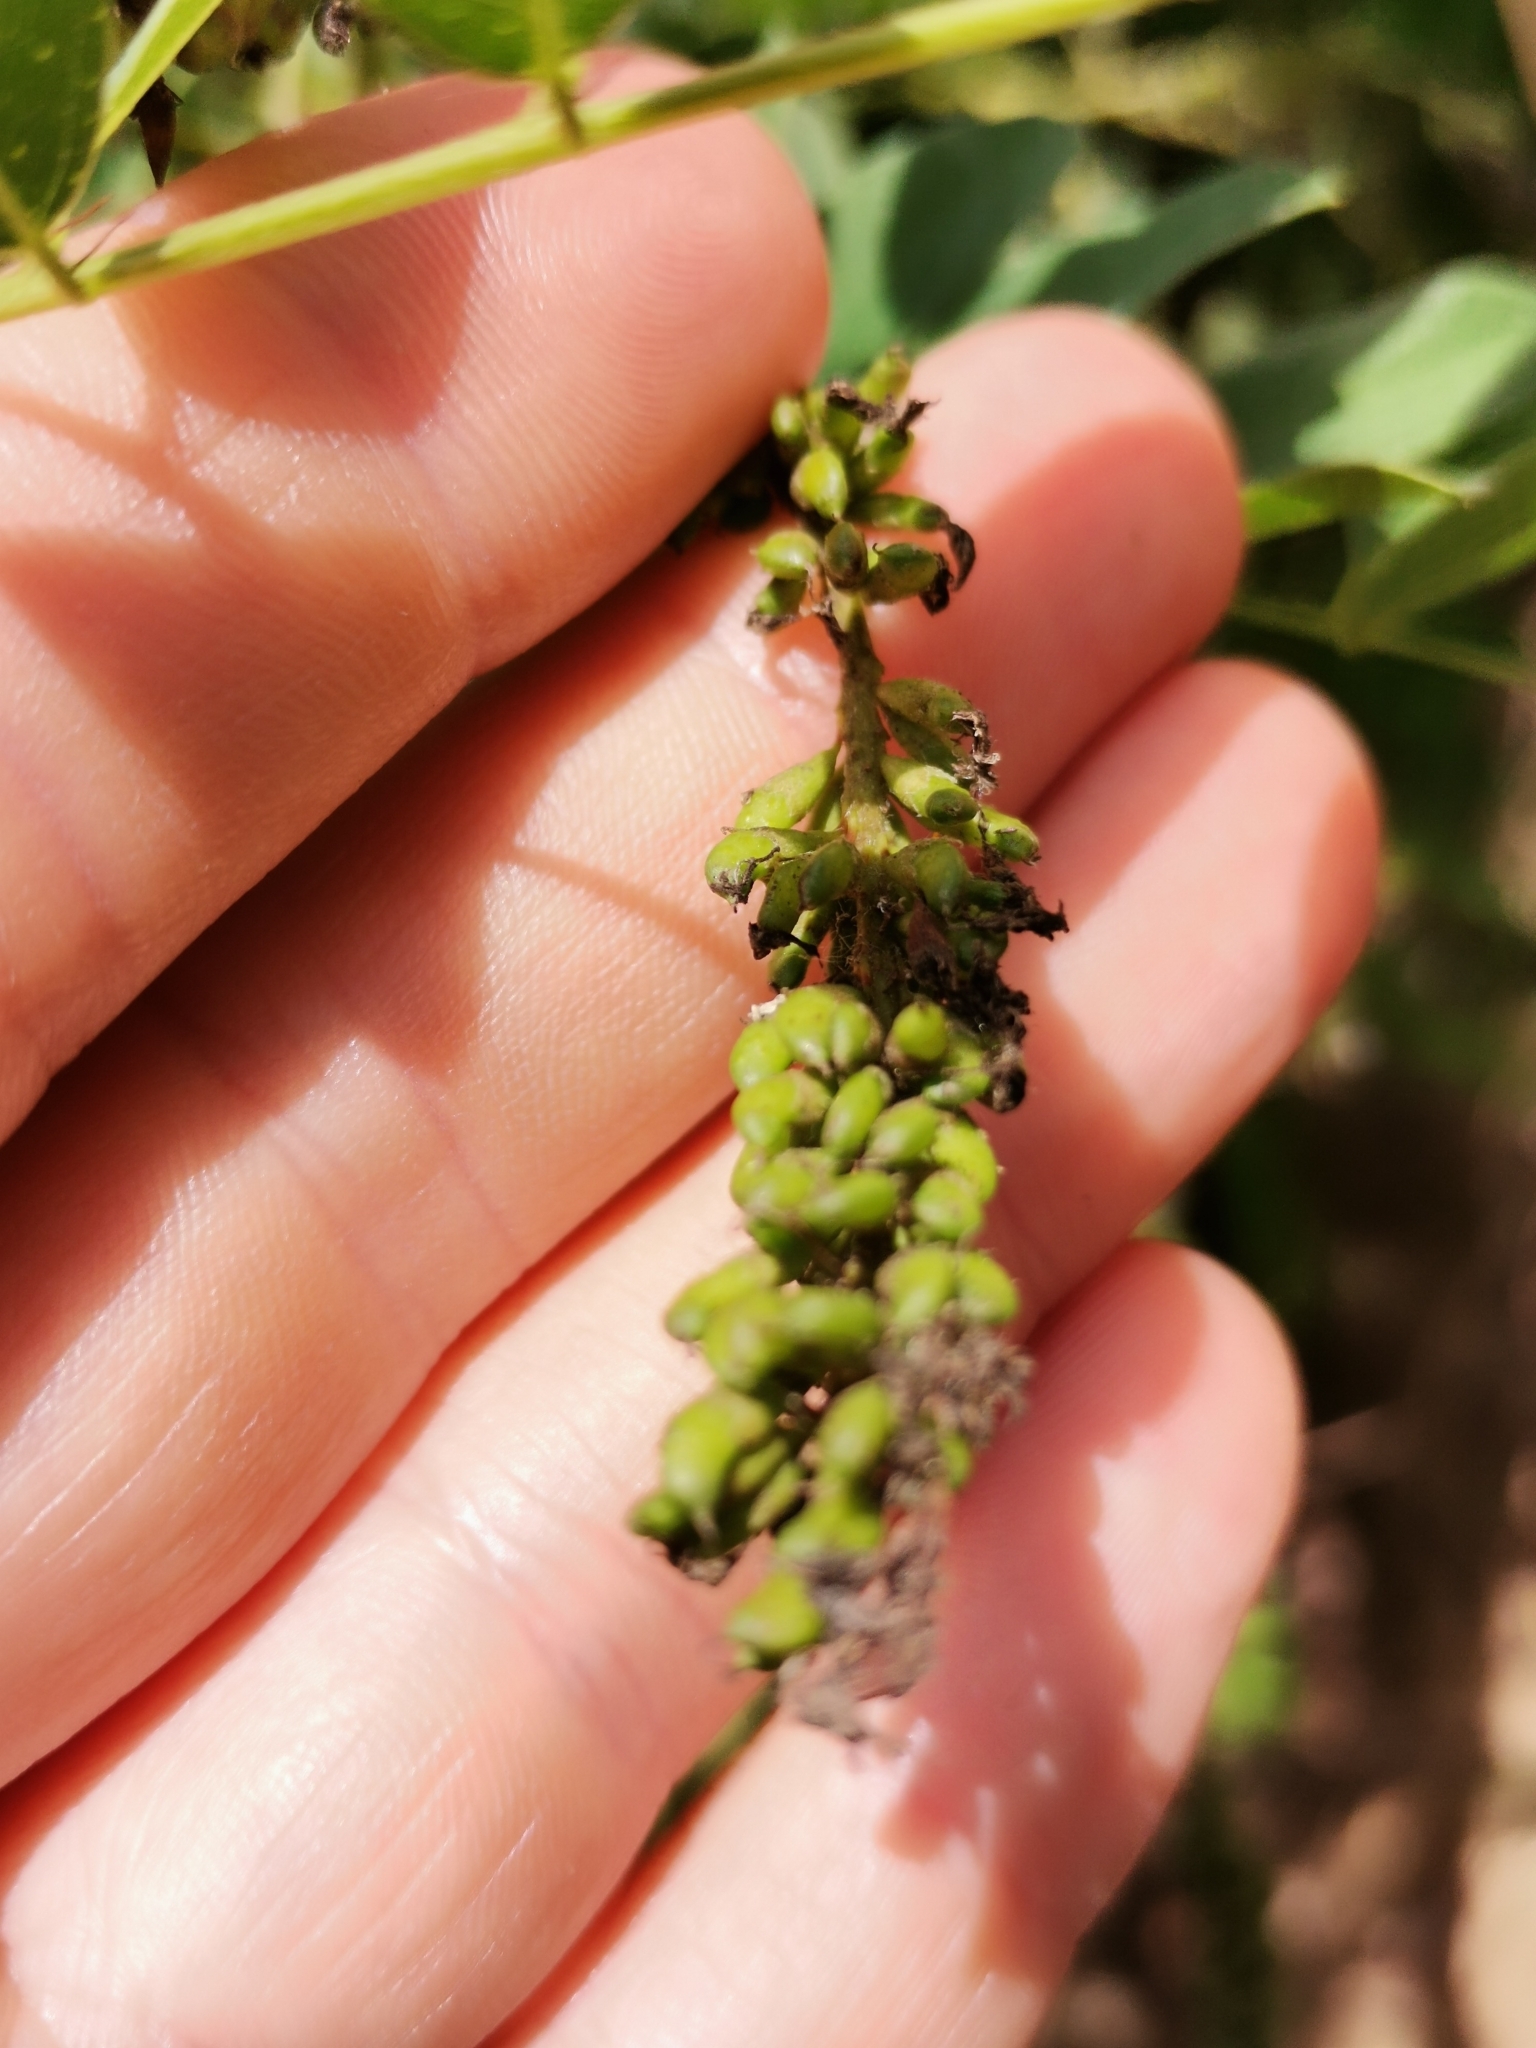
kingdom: Plantae
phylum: Tracheophyta
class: Magnoliopsida
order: Fabales
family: Fabaceae
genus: Amorpha
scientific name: Amorpha fruticosa
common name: False indigo
